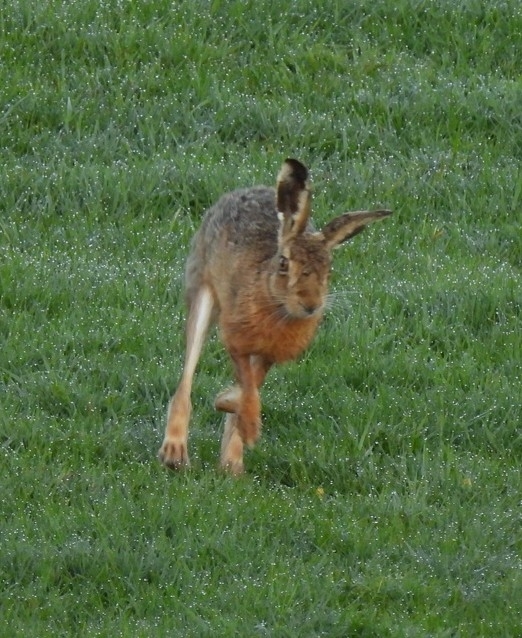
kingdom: Animalia
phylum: Chordata
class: Mammalia
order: Lagomorpha
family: Leporidae
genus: Lepus
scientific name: Lepus europaeus
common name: European hare
